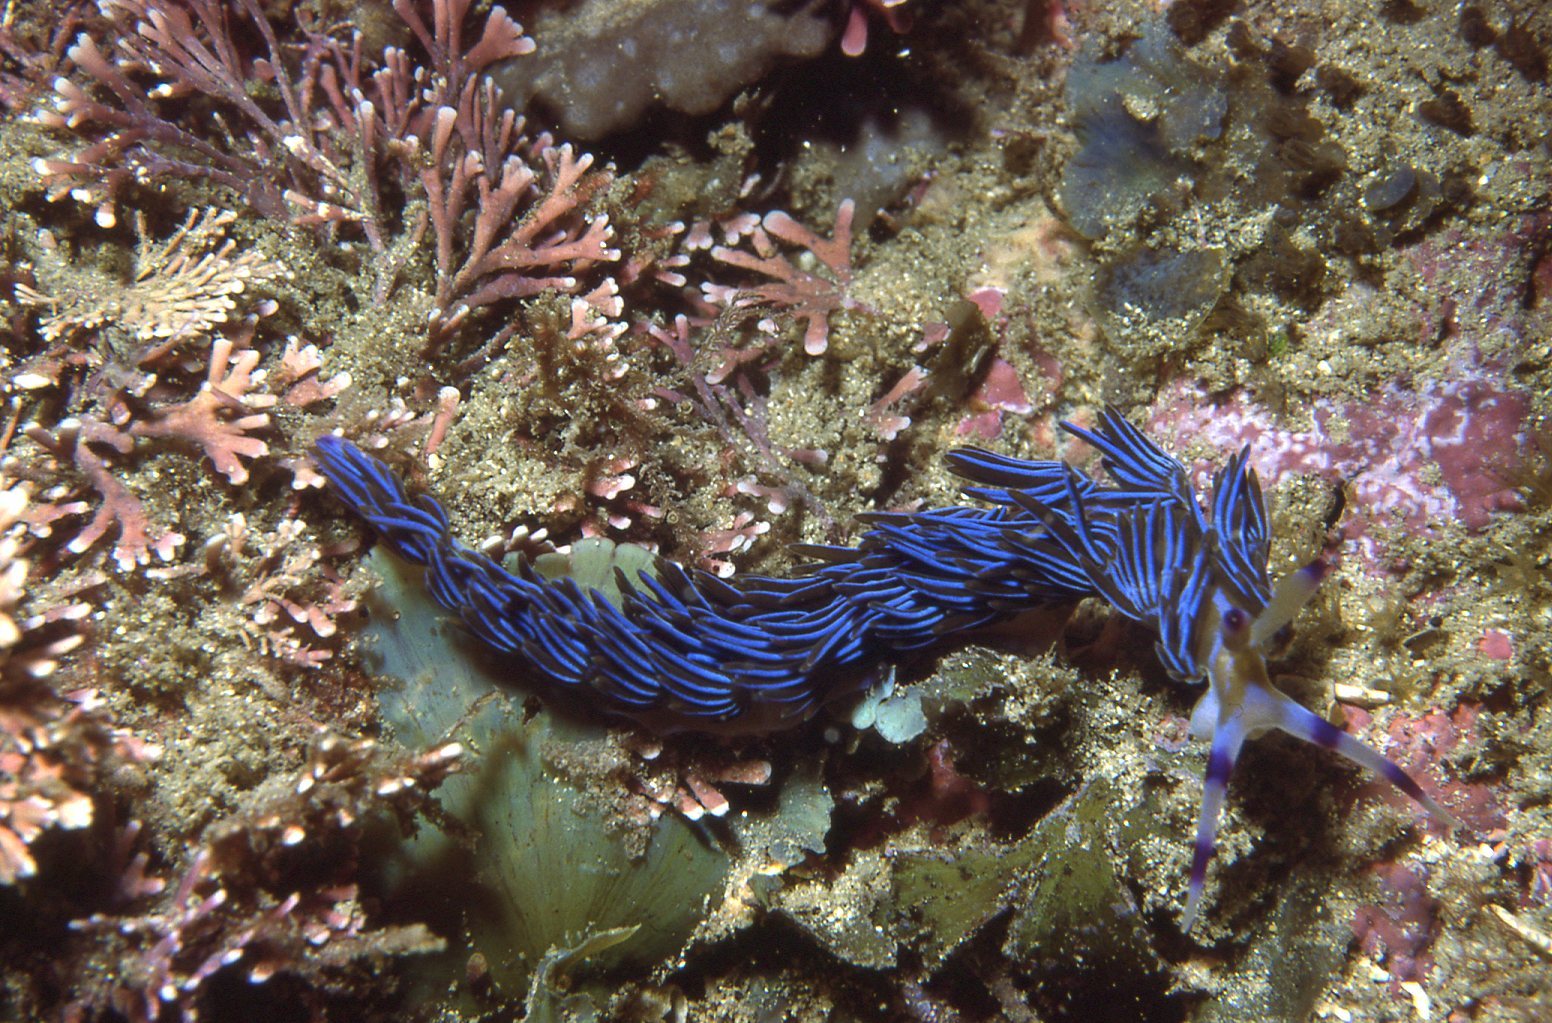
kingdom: Animalia
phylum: Mollusca
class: Gastropoda
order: Nudibranchia
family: Facelinidae
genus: Pteraeolidia
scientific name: Pteraeolidia ianthina
